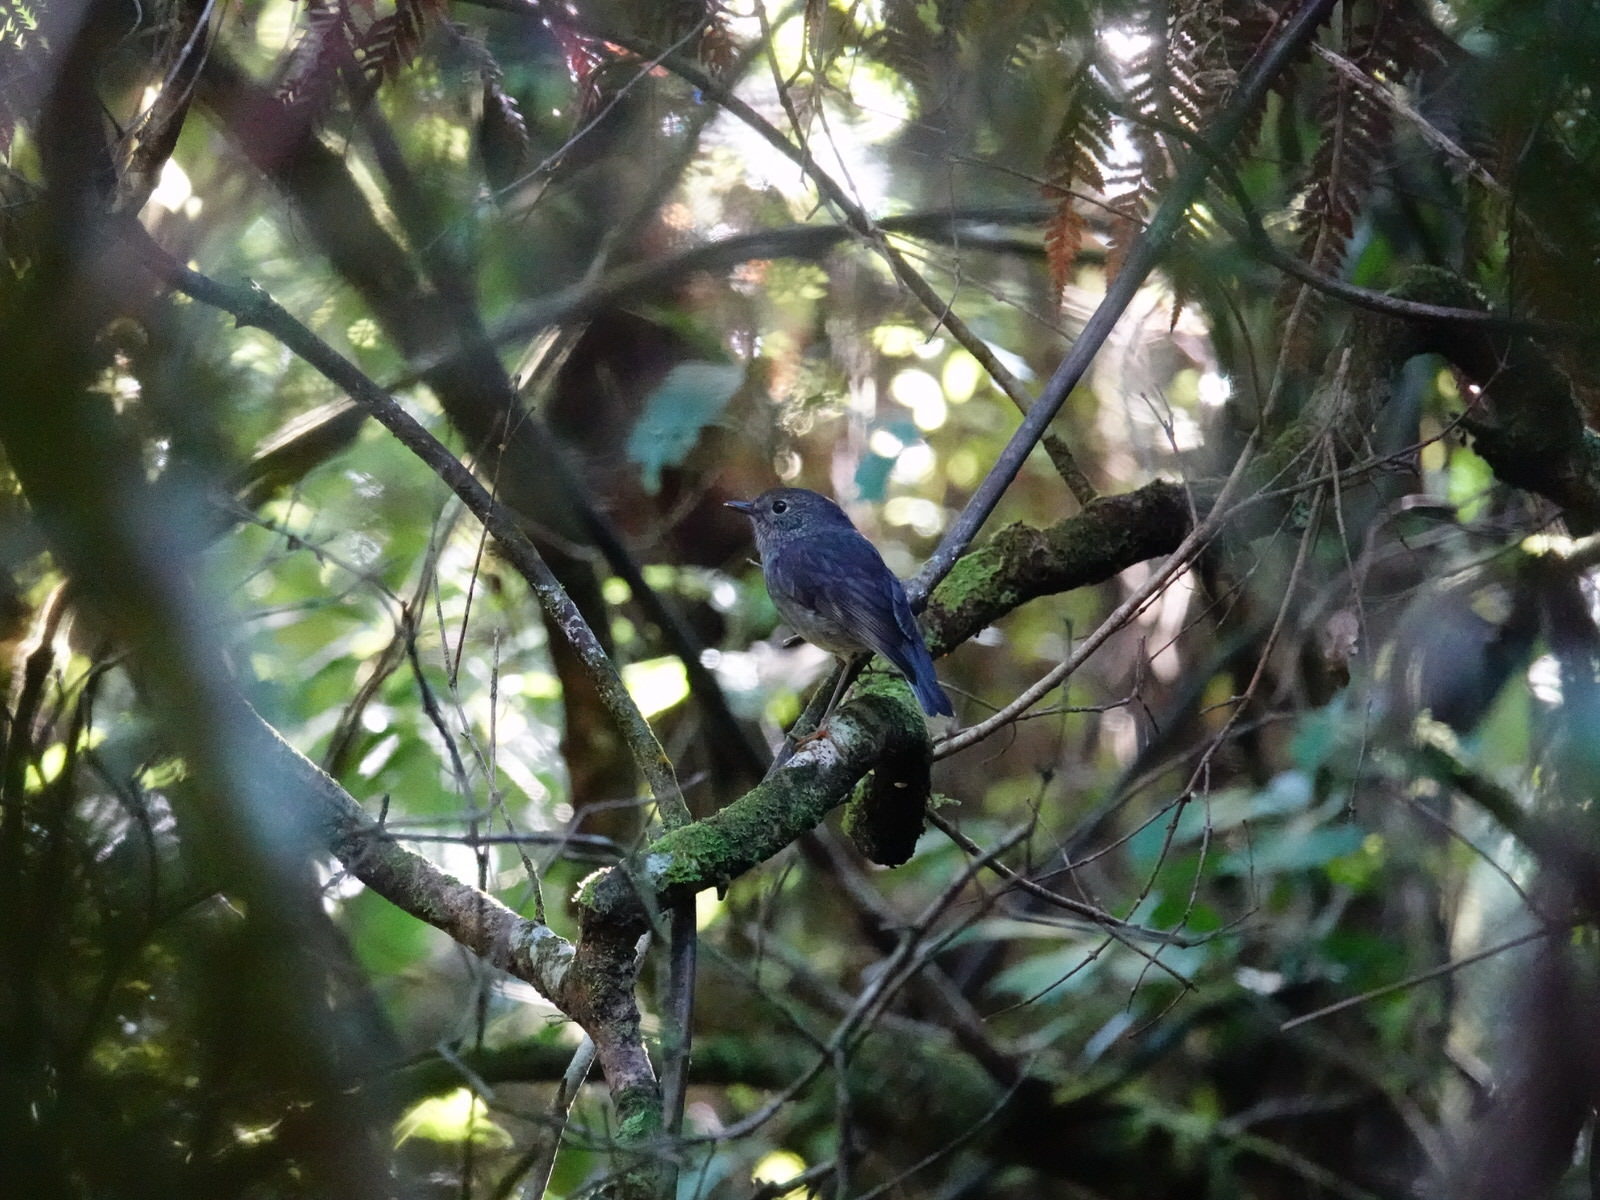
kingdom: Animalia
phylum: Chordata
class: Aves
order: Passeriformes
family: Petroicidae
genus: Petroica
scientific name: Petroica australis
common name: New zealand robin
